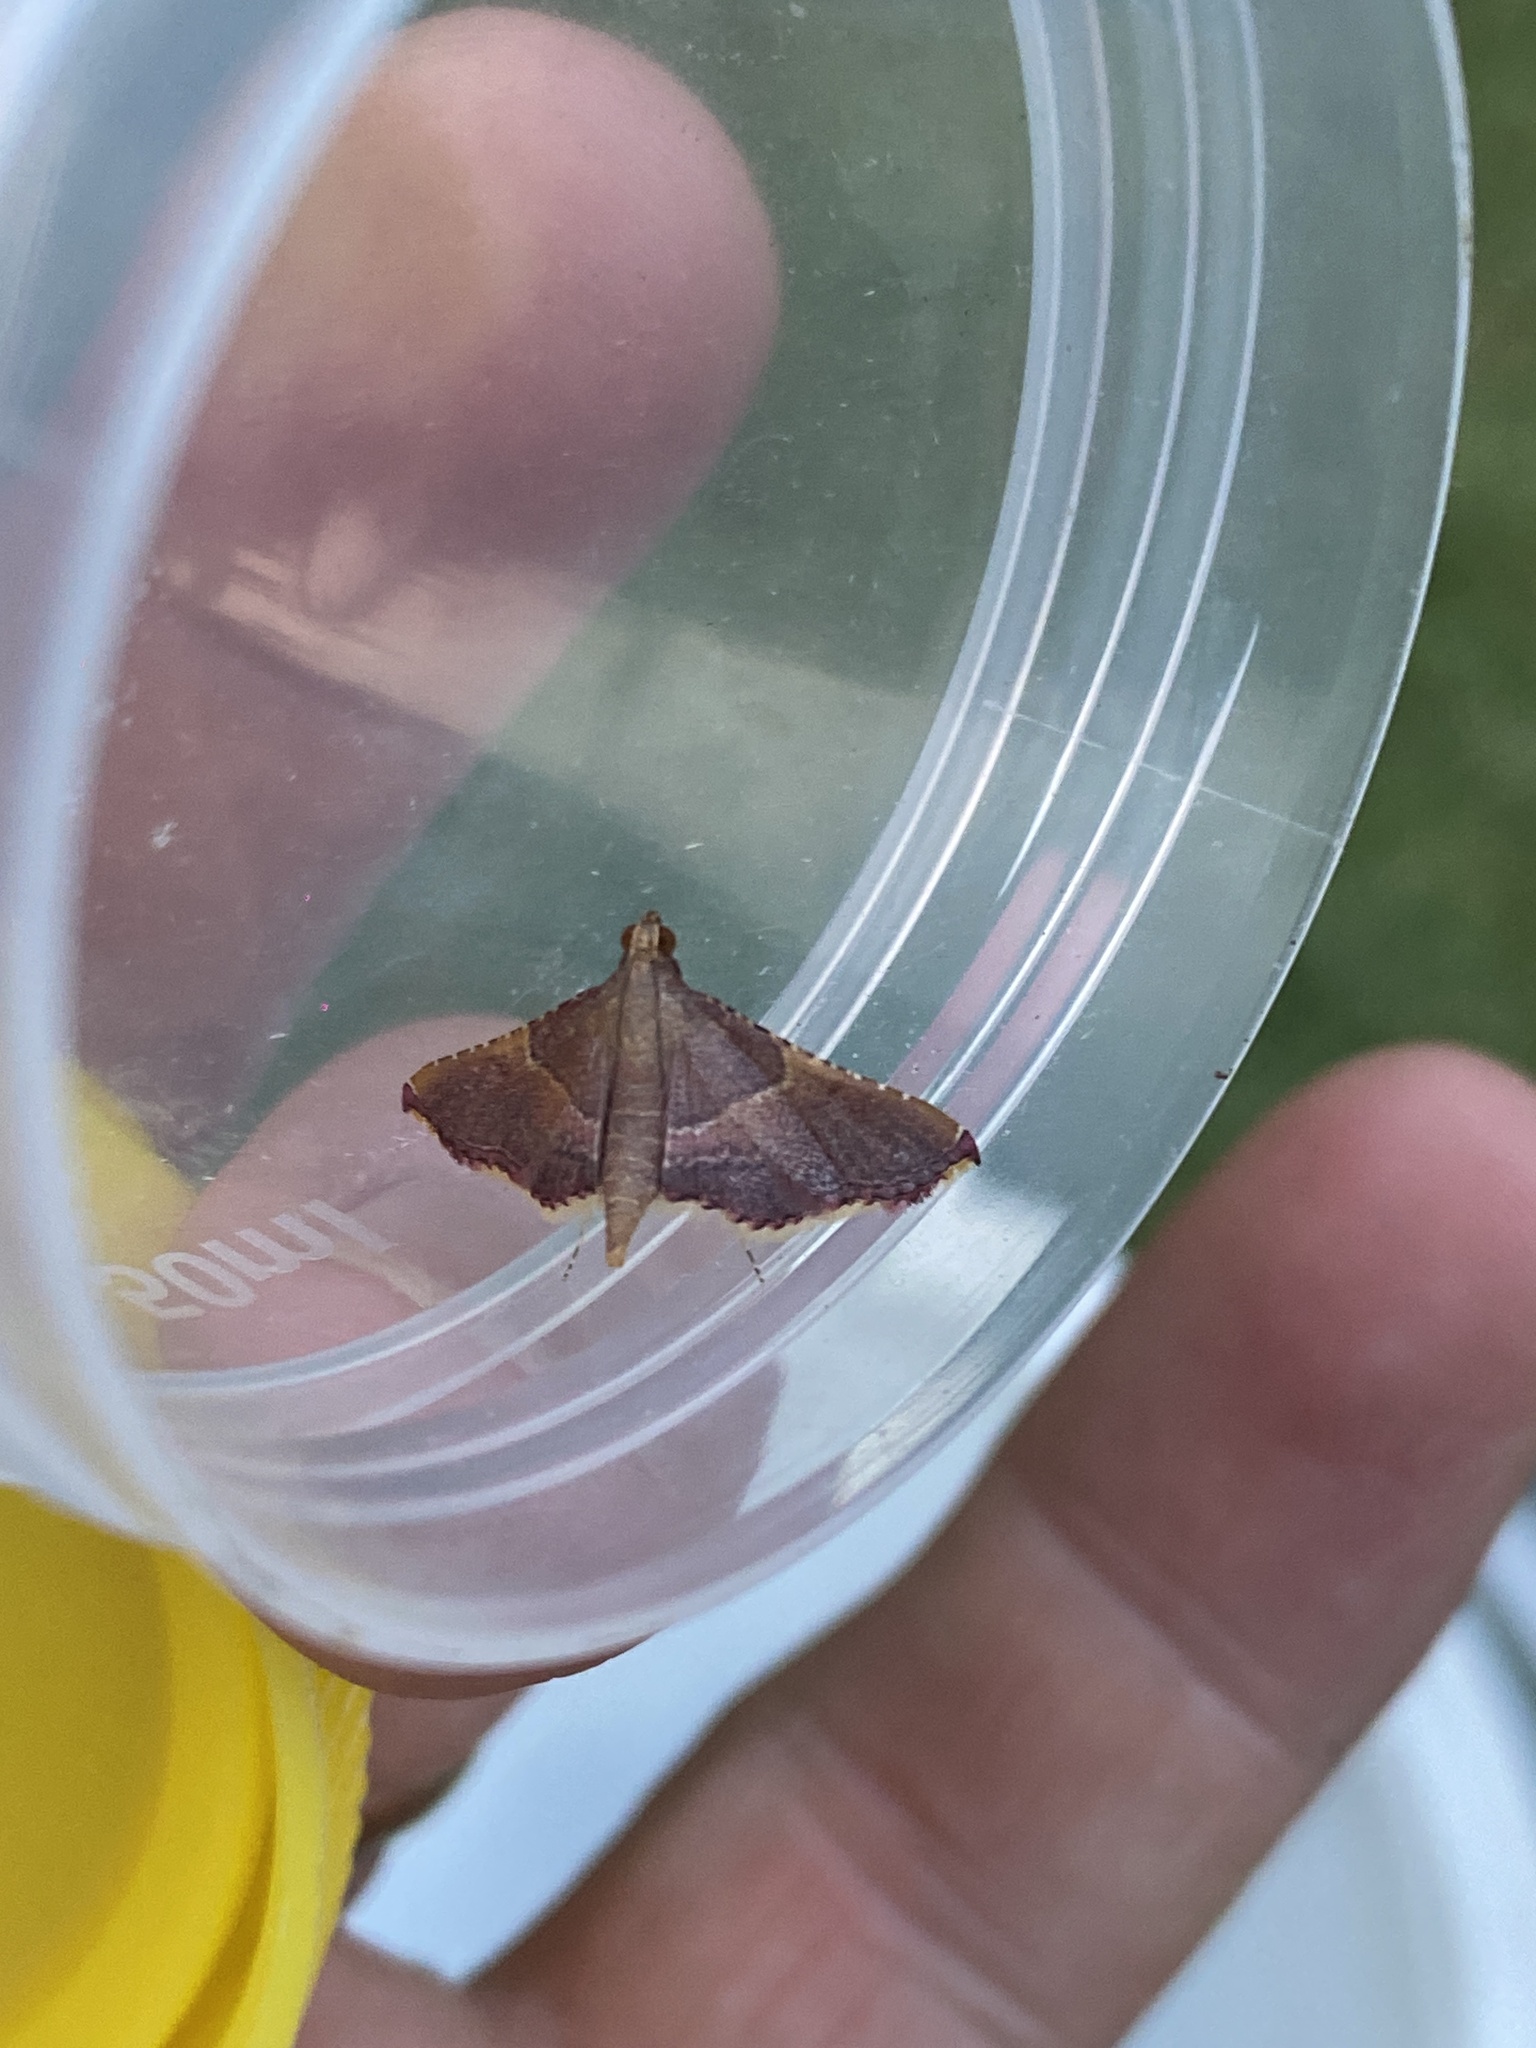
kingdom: Animalia
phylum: Arthropoda
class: Insecta
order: Lepidoptera
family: Pyralidae
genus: Endotricha
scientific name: Endotricha mesenterialis
